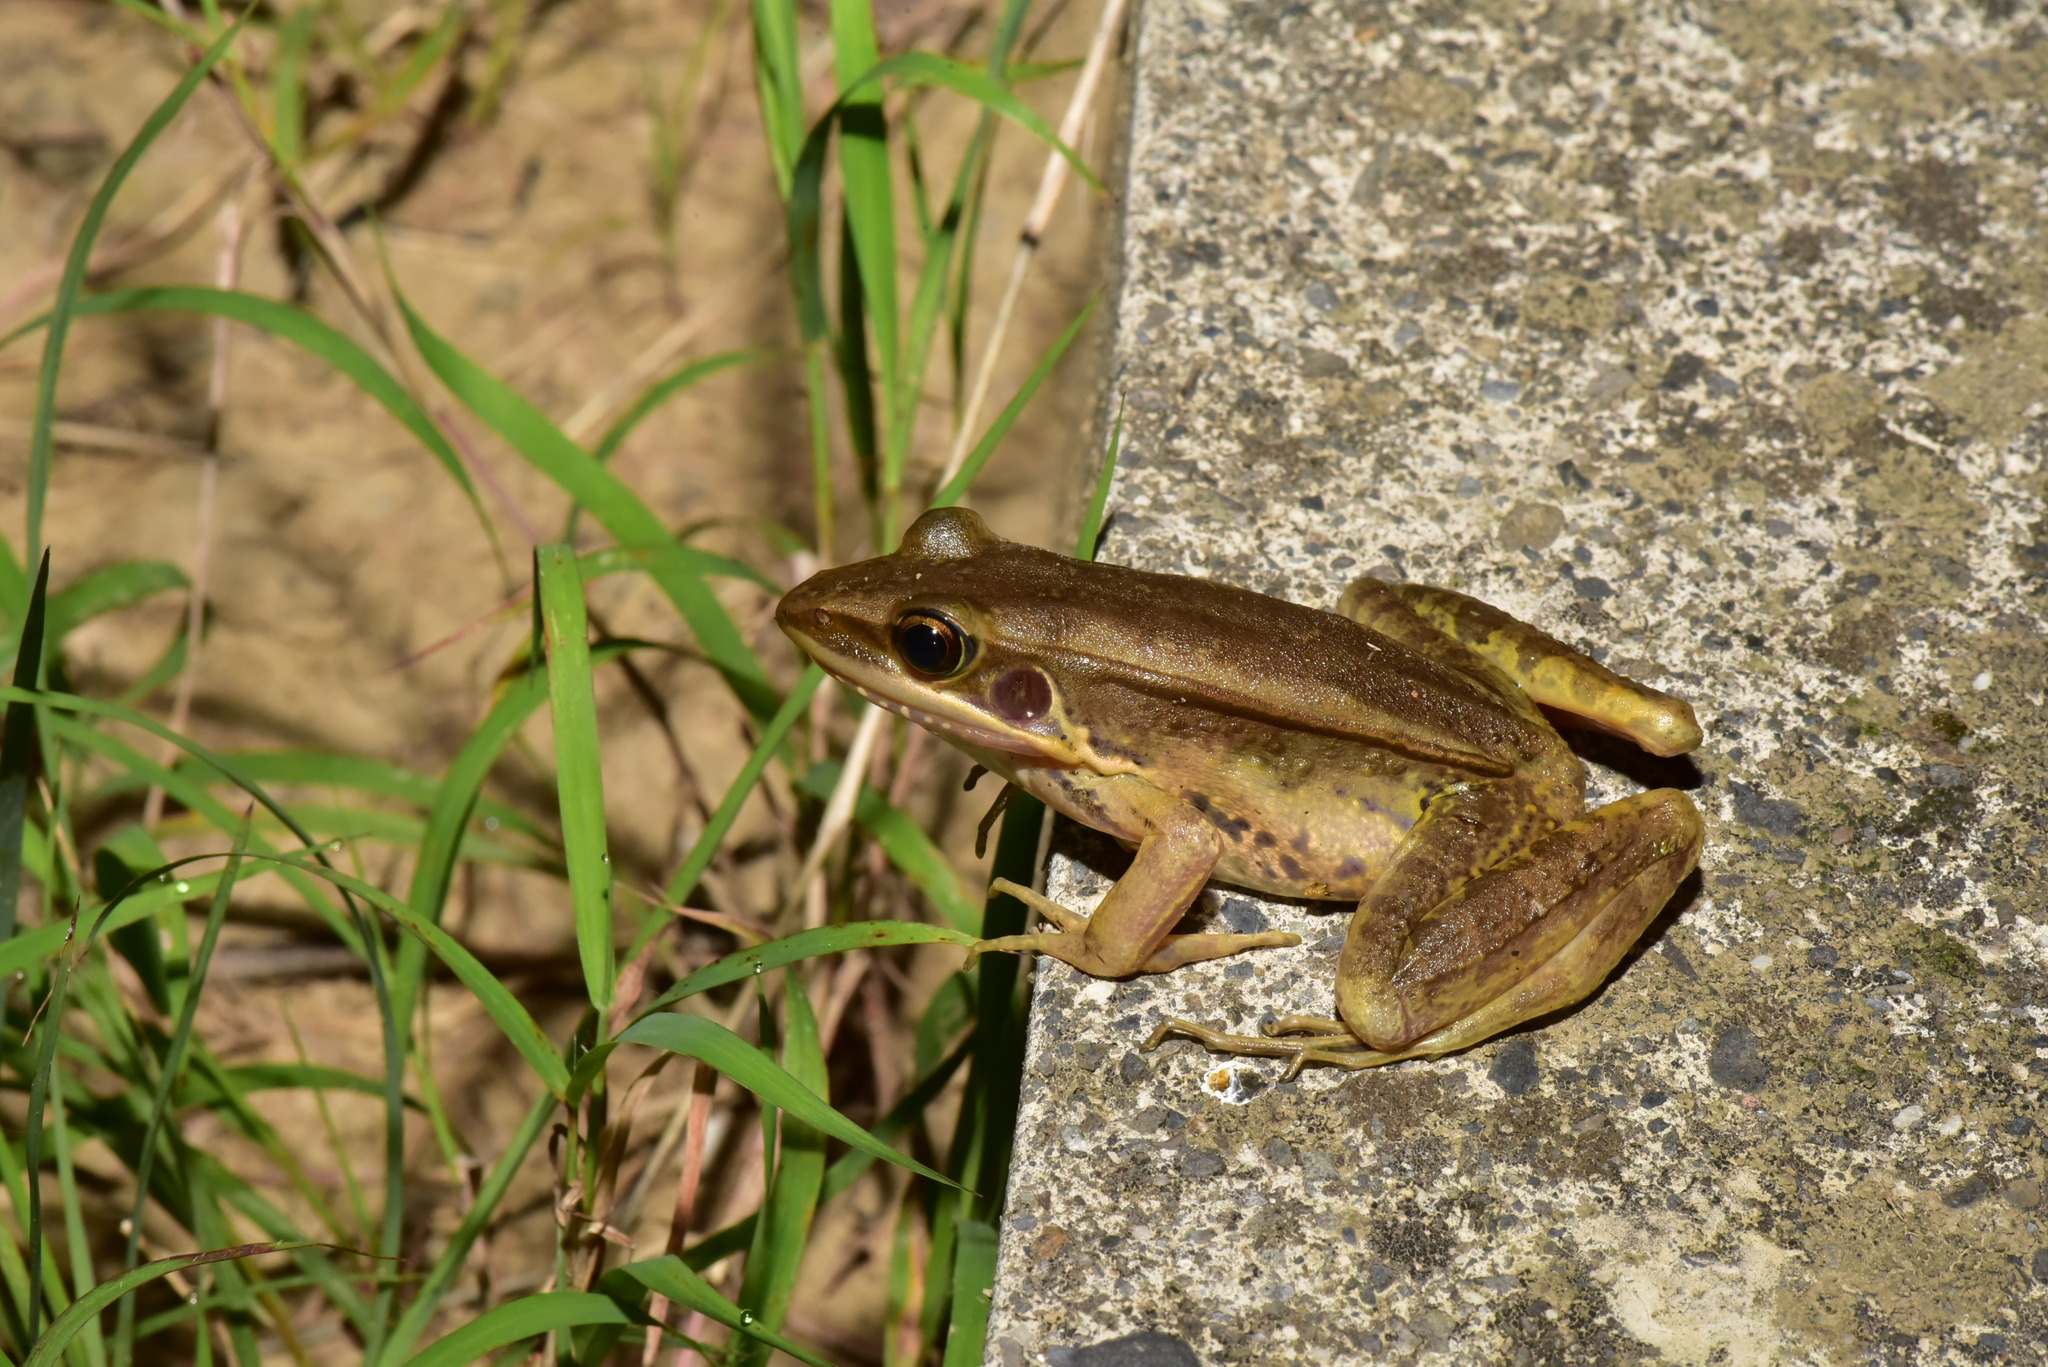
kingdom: Animalia
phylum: Chordata
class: Amphibia
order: Anura
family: Ranidae
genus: Sylvirana
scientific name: Sylvirana guentheri
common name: Guenther's amoy frog
